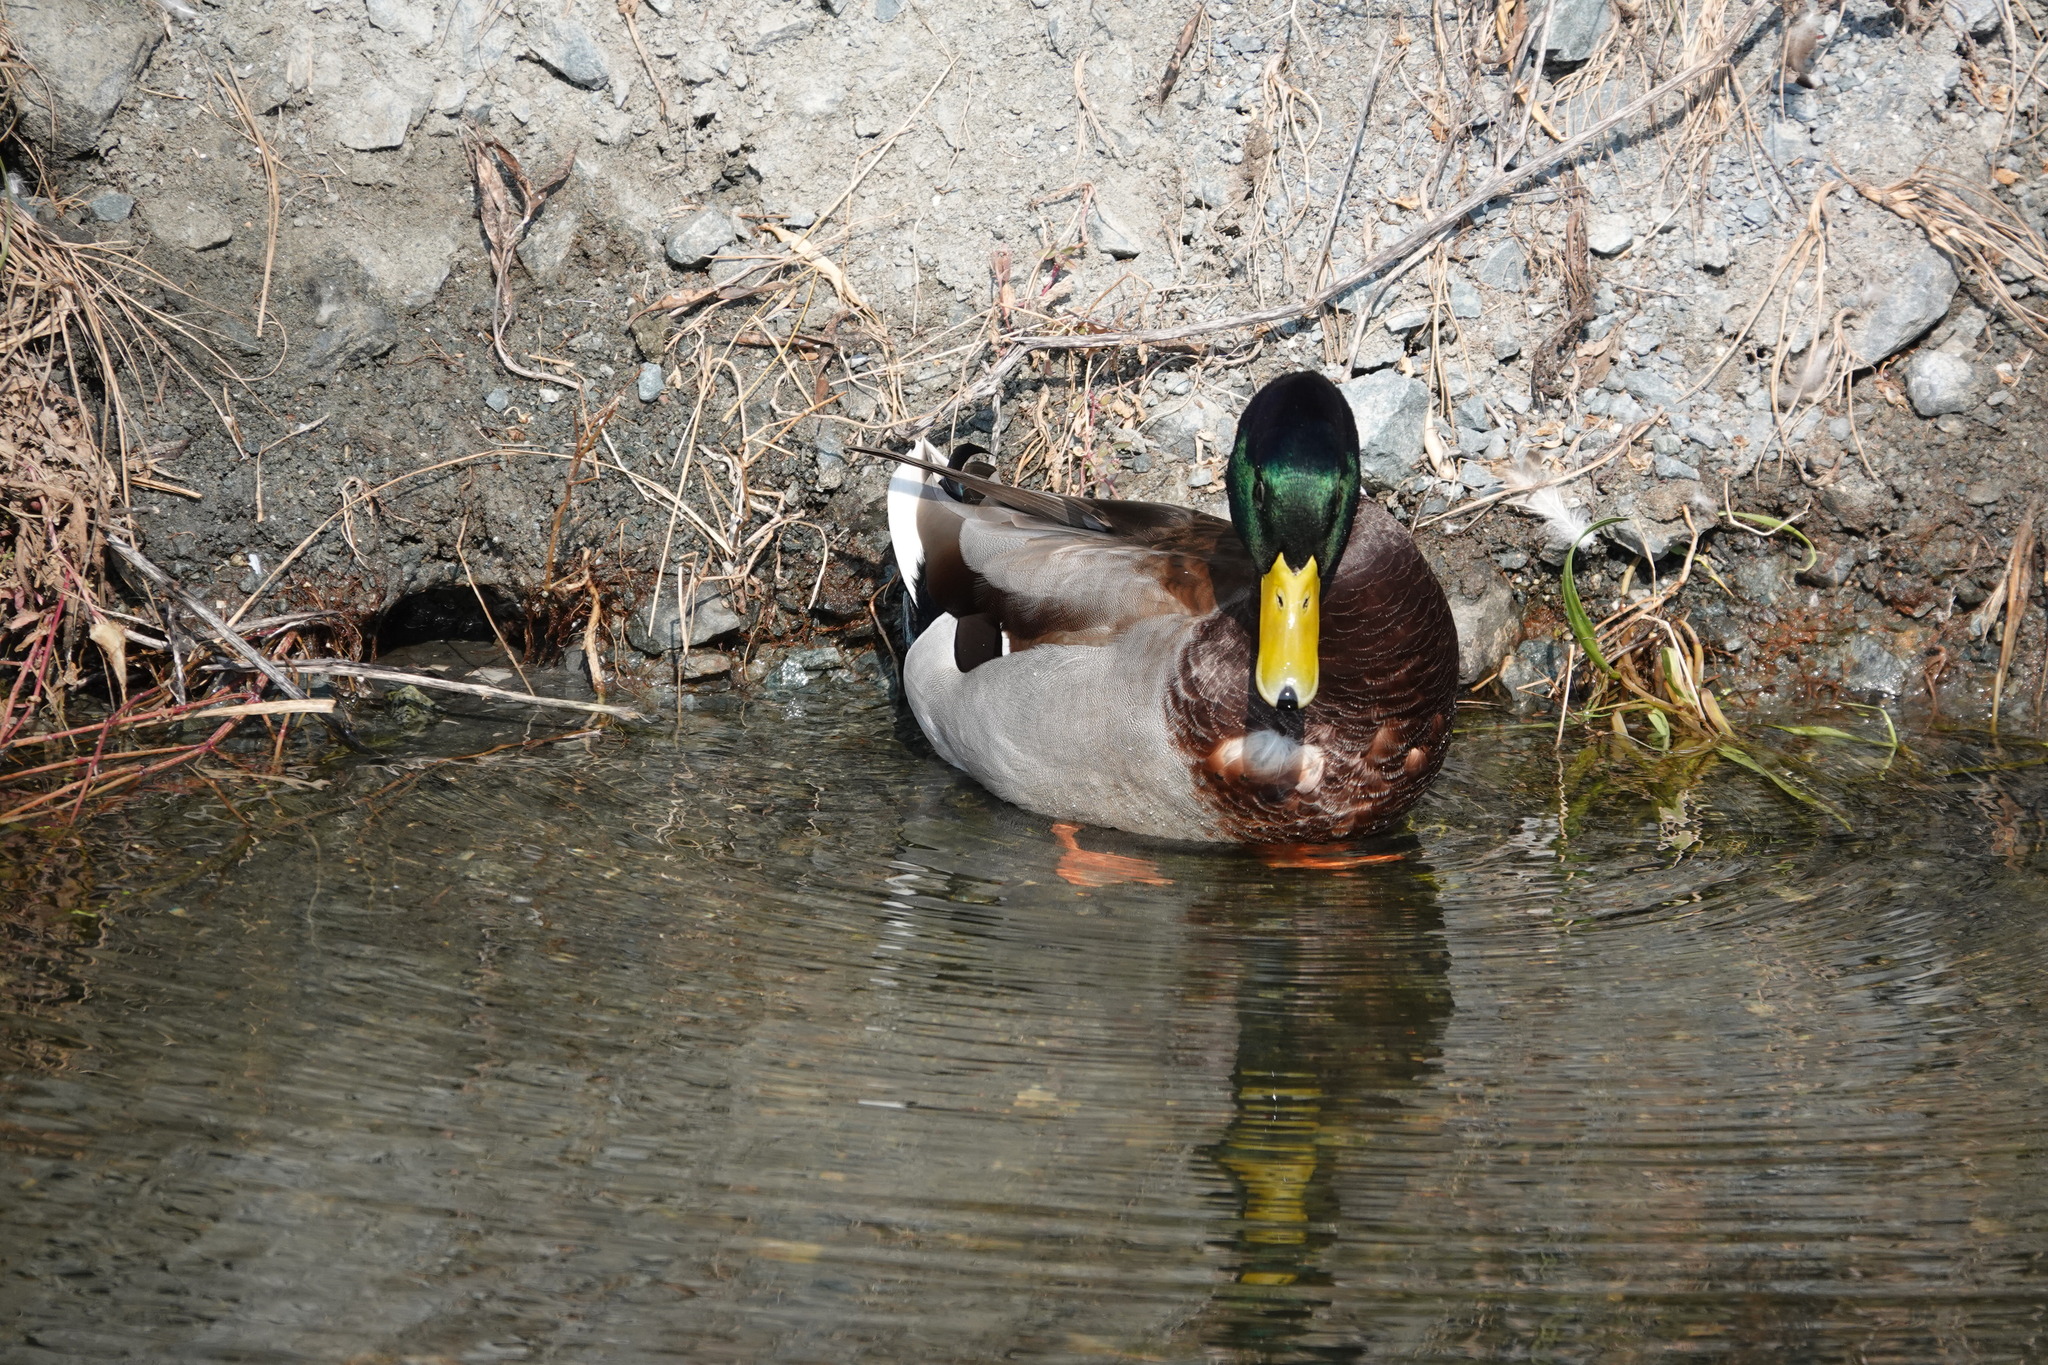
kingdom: Animalia
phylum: Chordata
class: Aves
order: Anseriformes
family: Anatidae
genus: Anas
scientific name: Anas platyrhynchos
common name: Mallard
